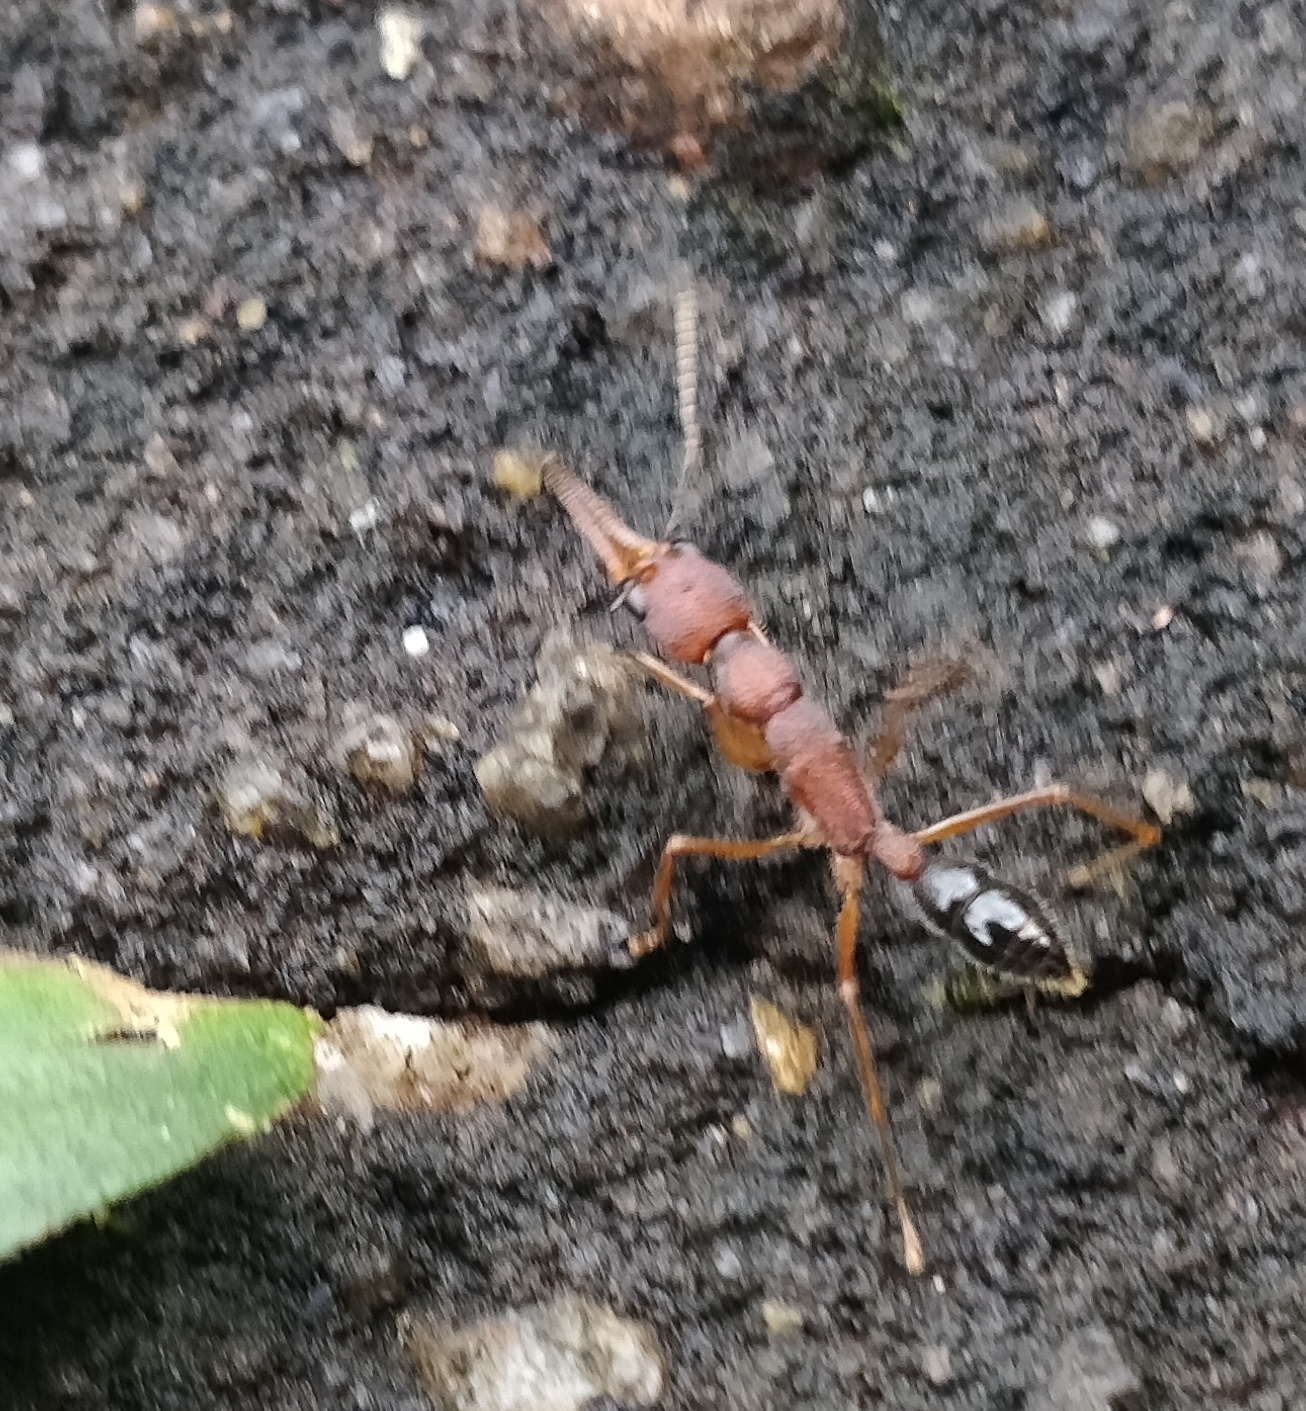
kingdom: Animalia
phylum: Arthropoda
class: Insecta
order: Hymenoptera
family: Formicidae
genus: Harpegnathos
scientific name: Harpegnathos saltator
